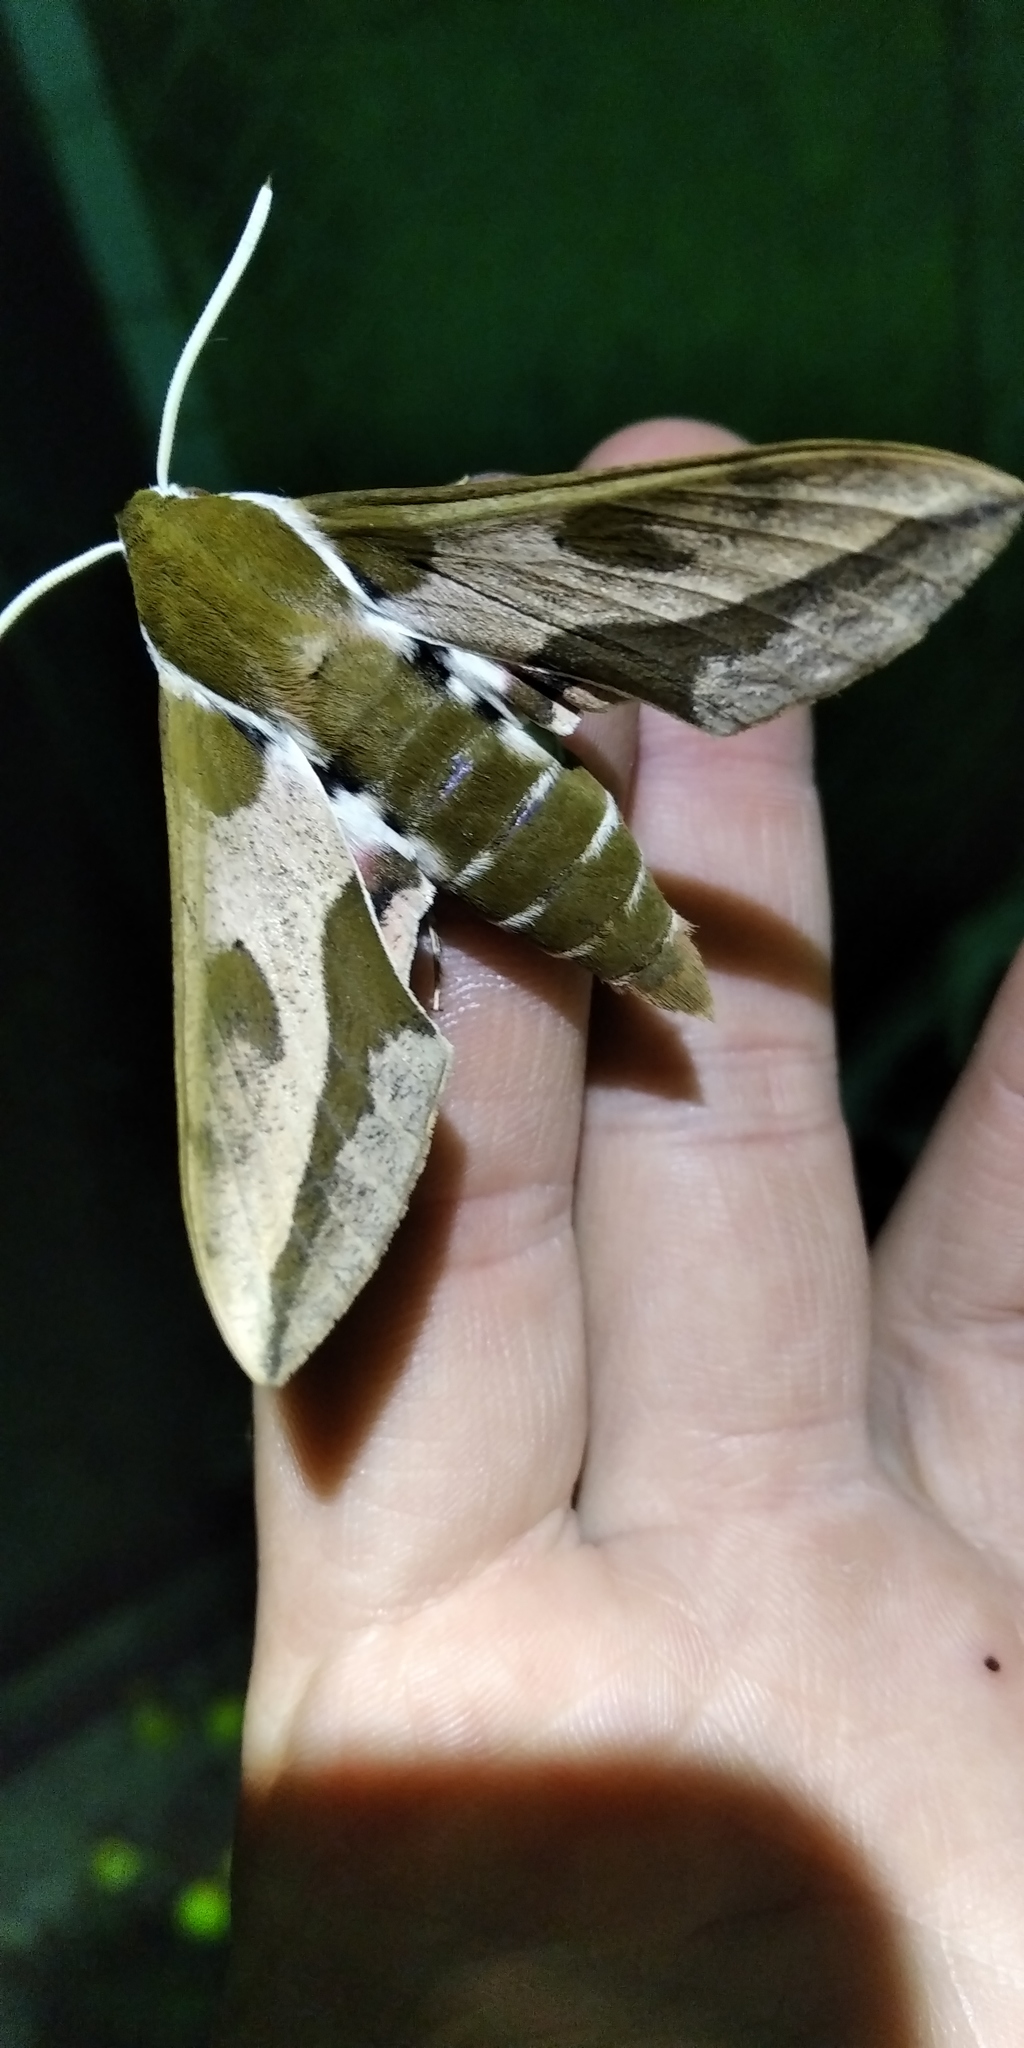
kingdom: Animalia
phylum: Arthropoda
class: Insecta
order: Lepidoptera
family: Sphingidae
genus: Hyles
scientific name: Hyles euphorbiae
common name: Spurge hawk-moth
